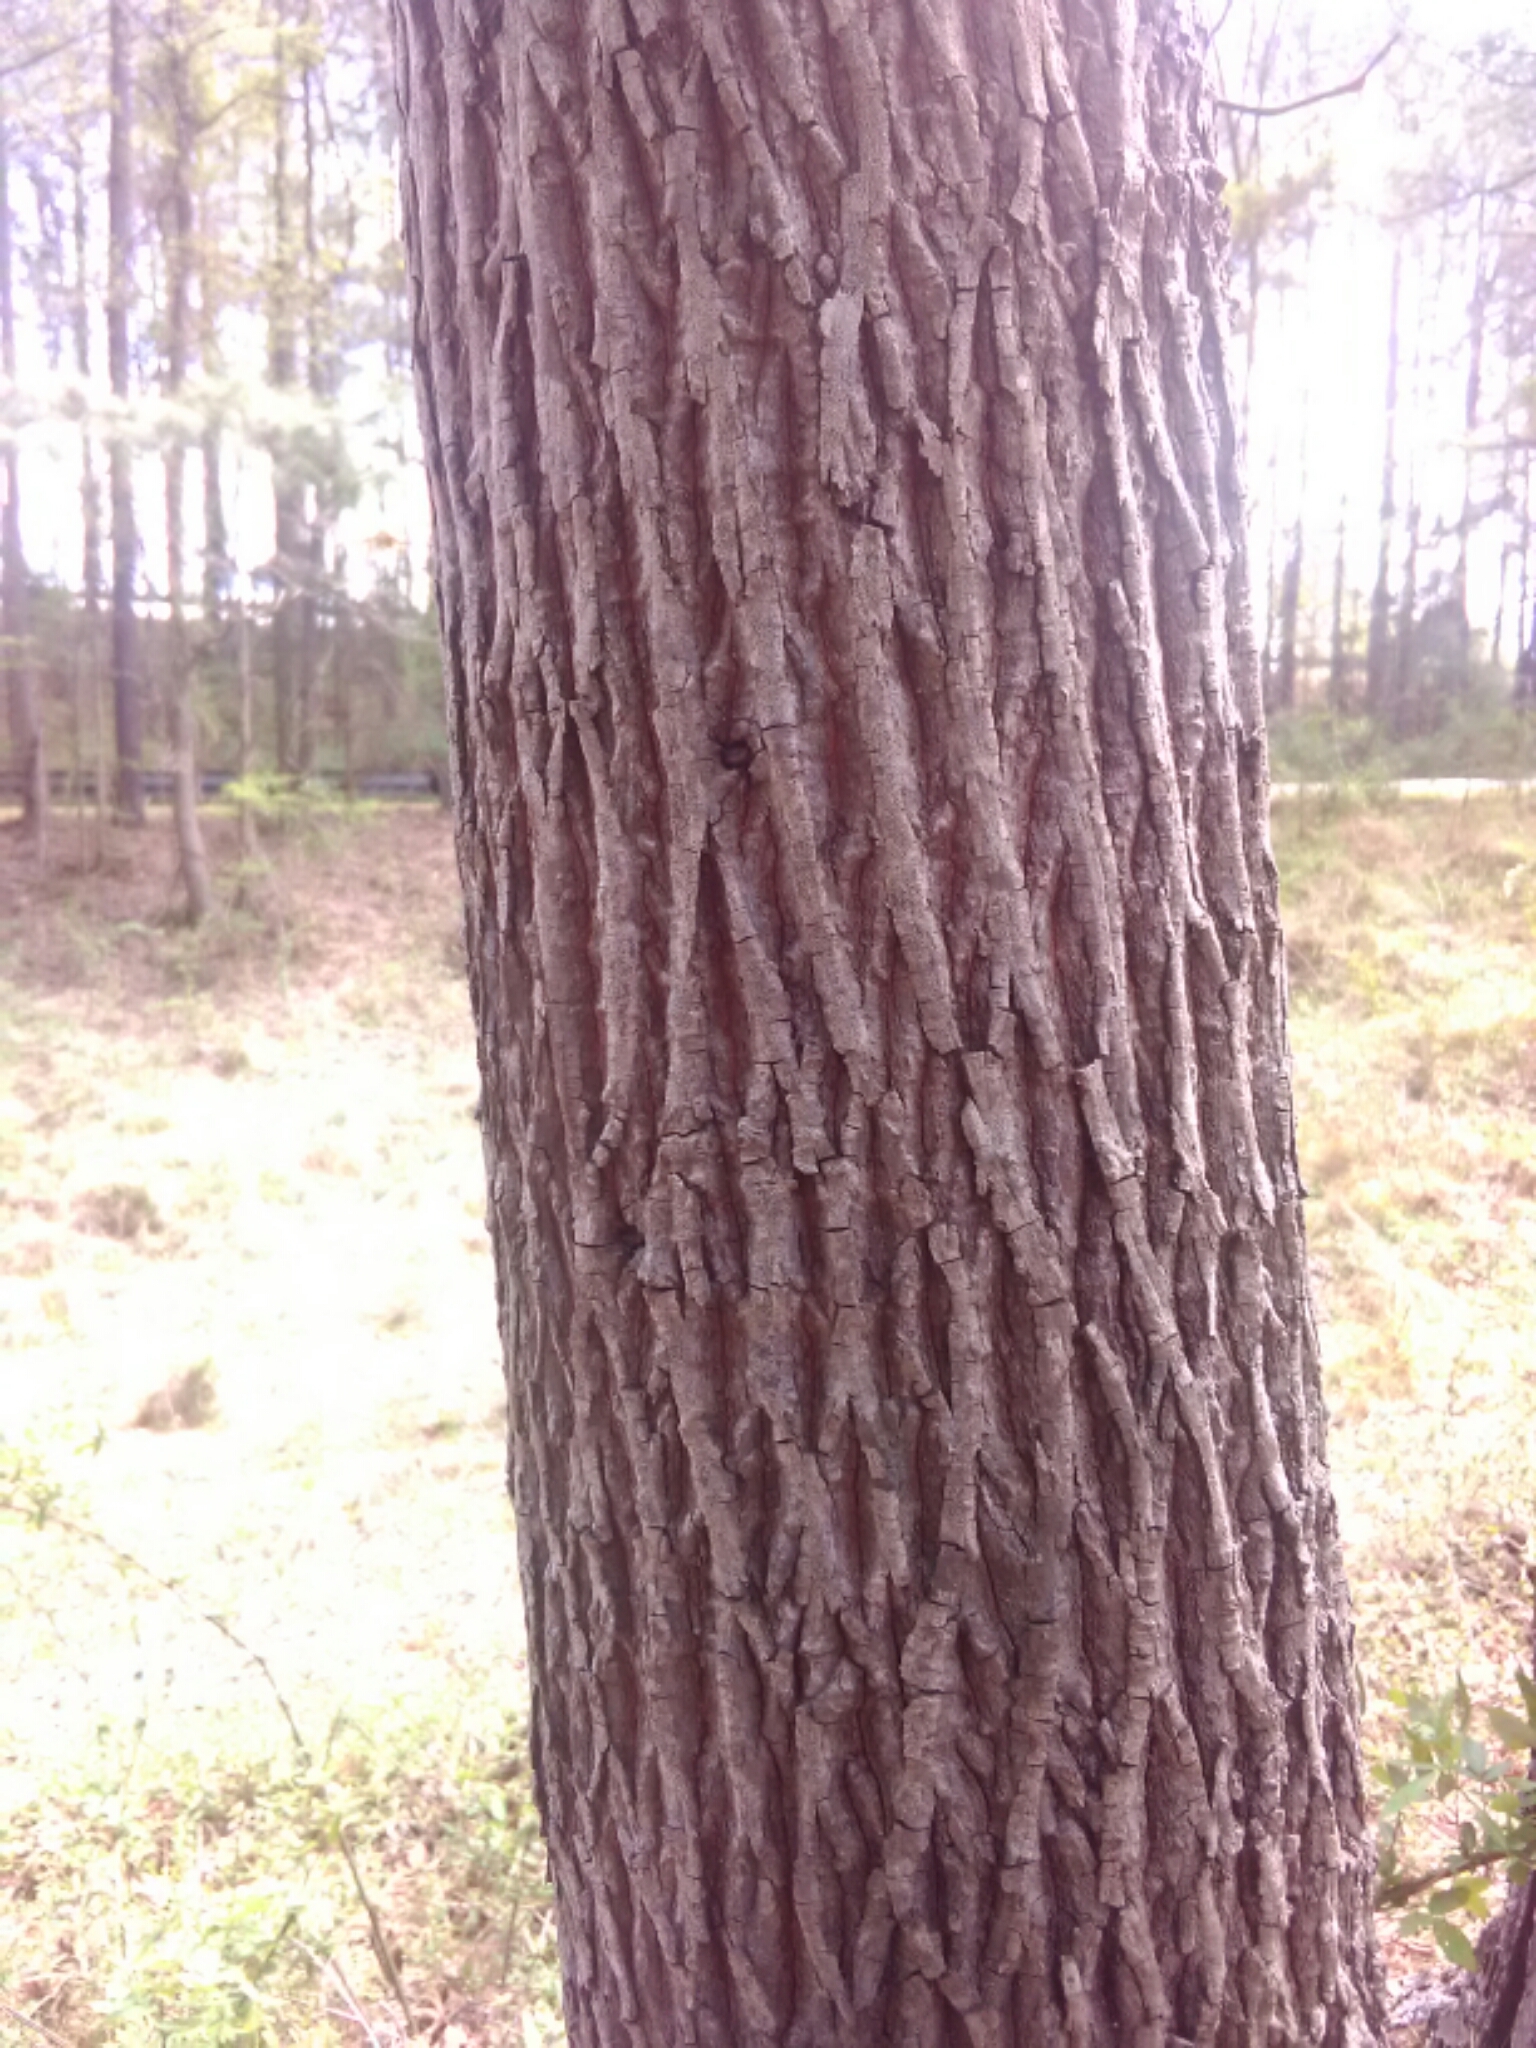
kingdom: Plantae
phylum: Tracheophyta
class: Magnoliopsida
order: Magnoliales
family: Magnoliaceae
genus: Liriodendron
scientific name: Liriodendron tulipifera
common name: Tulip tree
